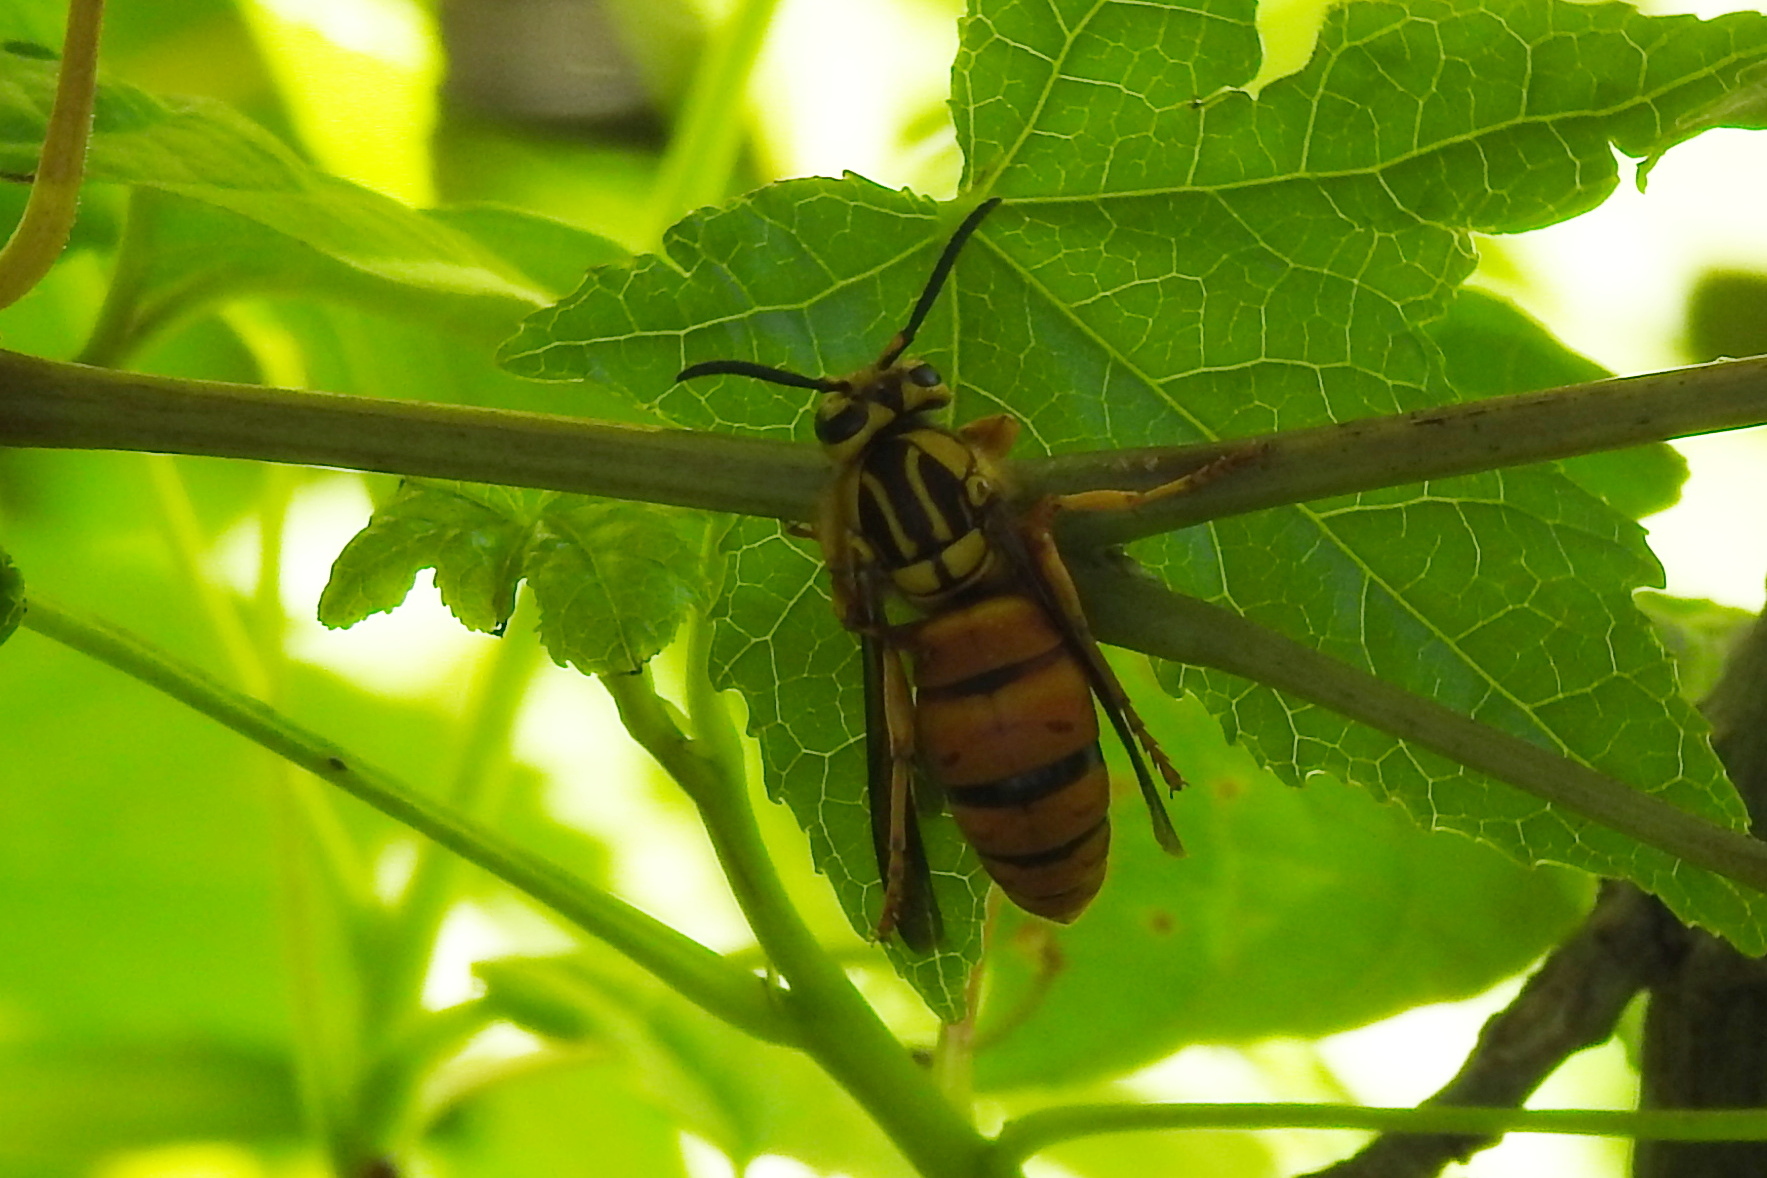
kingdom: Animalia
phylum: Arthropoda
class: Insecta
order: Hymenoptera
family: Vespidae
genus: Vespula
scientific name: Vespula squamosa
